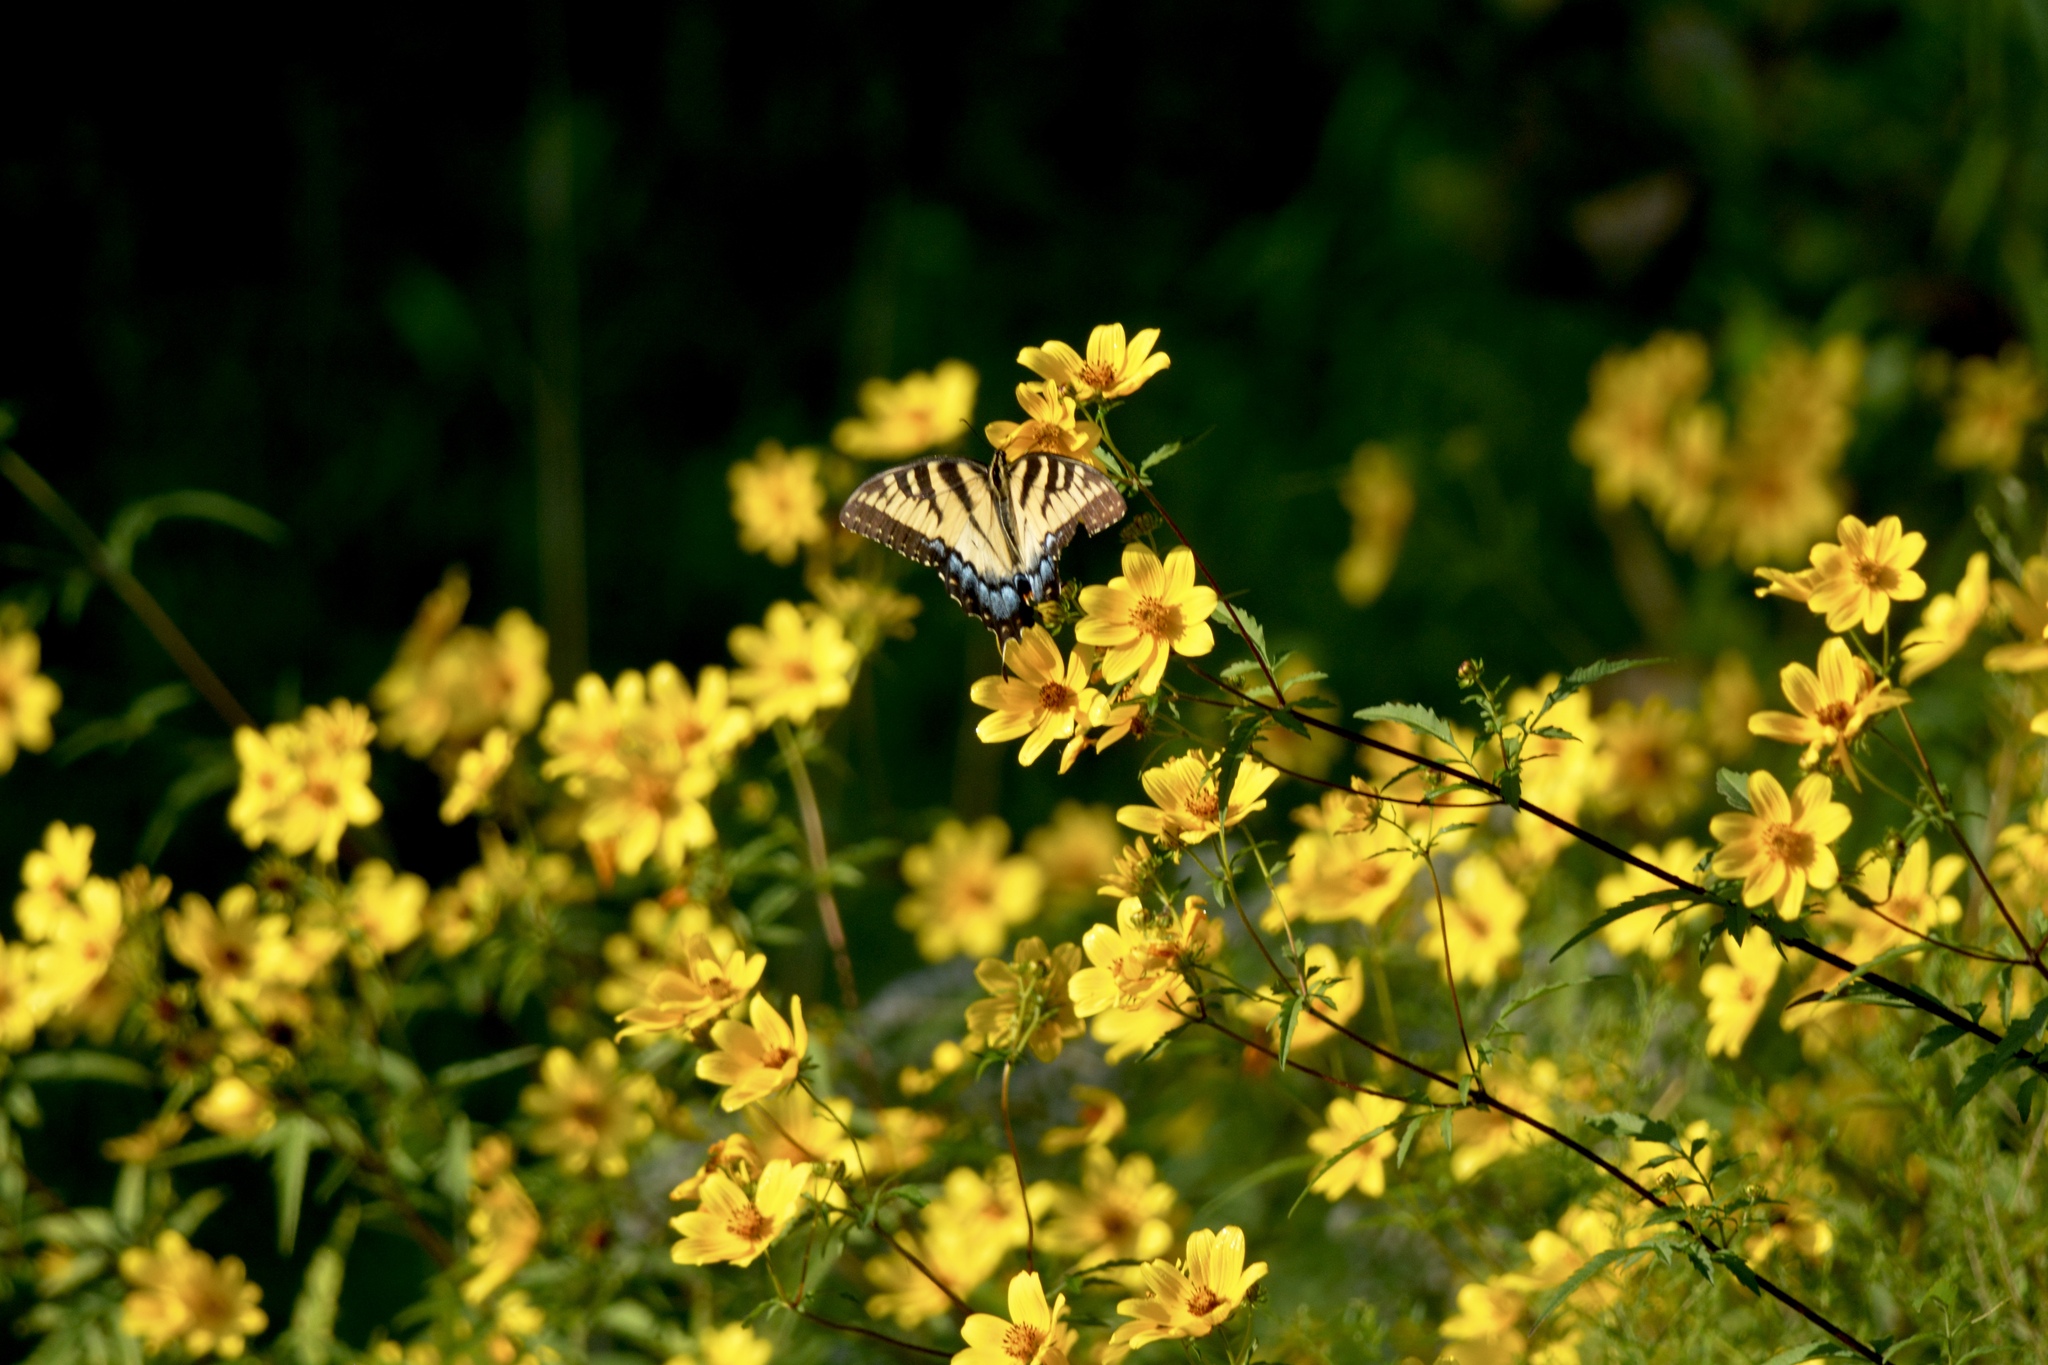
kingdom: Animalia
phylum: Arthropoda
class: Insecta
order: Lepidoptera
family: Papilionidae
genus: Papilio
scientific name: Papilio glaucus
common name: Tiger swallowtail
